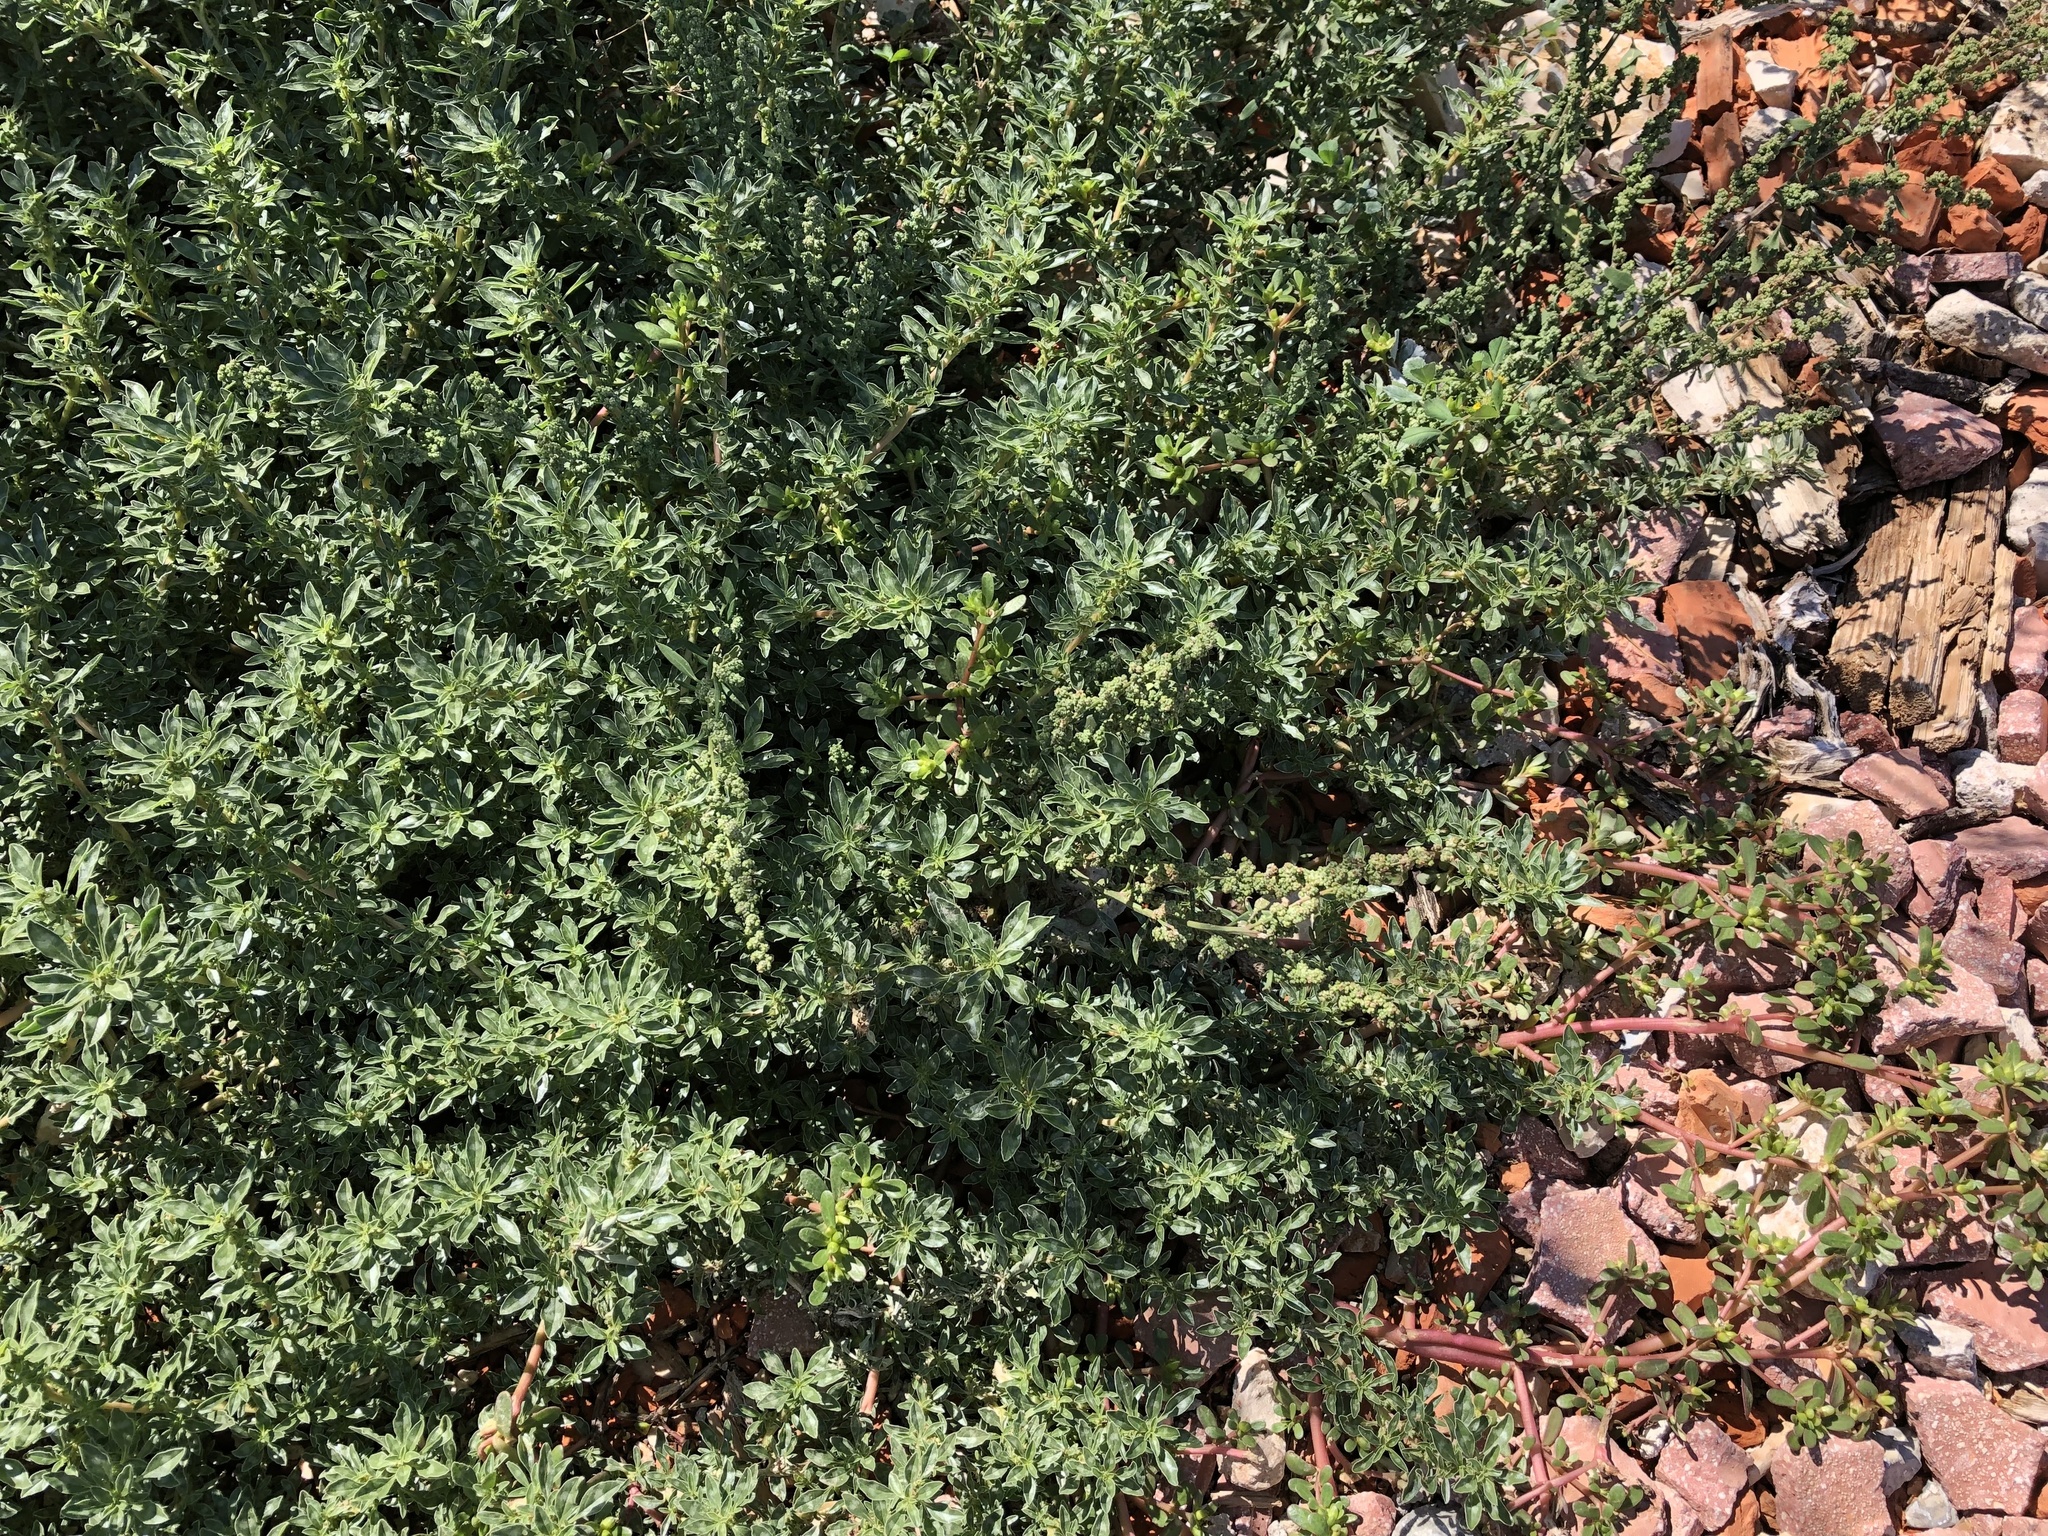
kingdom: Plantae
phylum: Tracheophyta
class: Magnoliopsida
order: Caryophyllales
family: Amaranthaceae
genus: Amaranthus
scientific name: Amaranthus blitoides
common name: Prostrate pigweed
